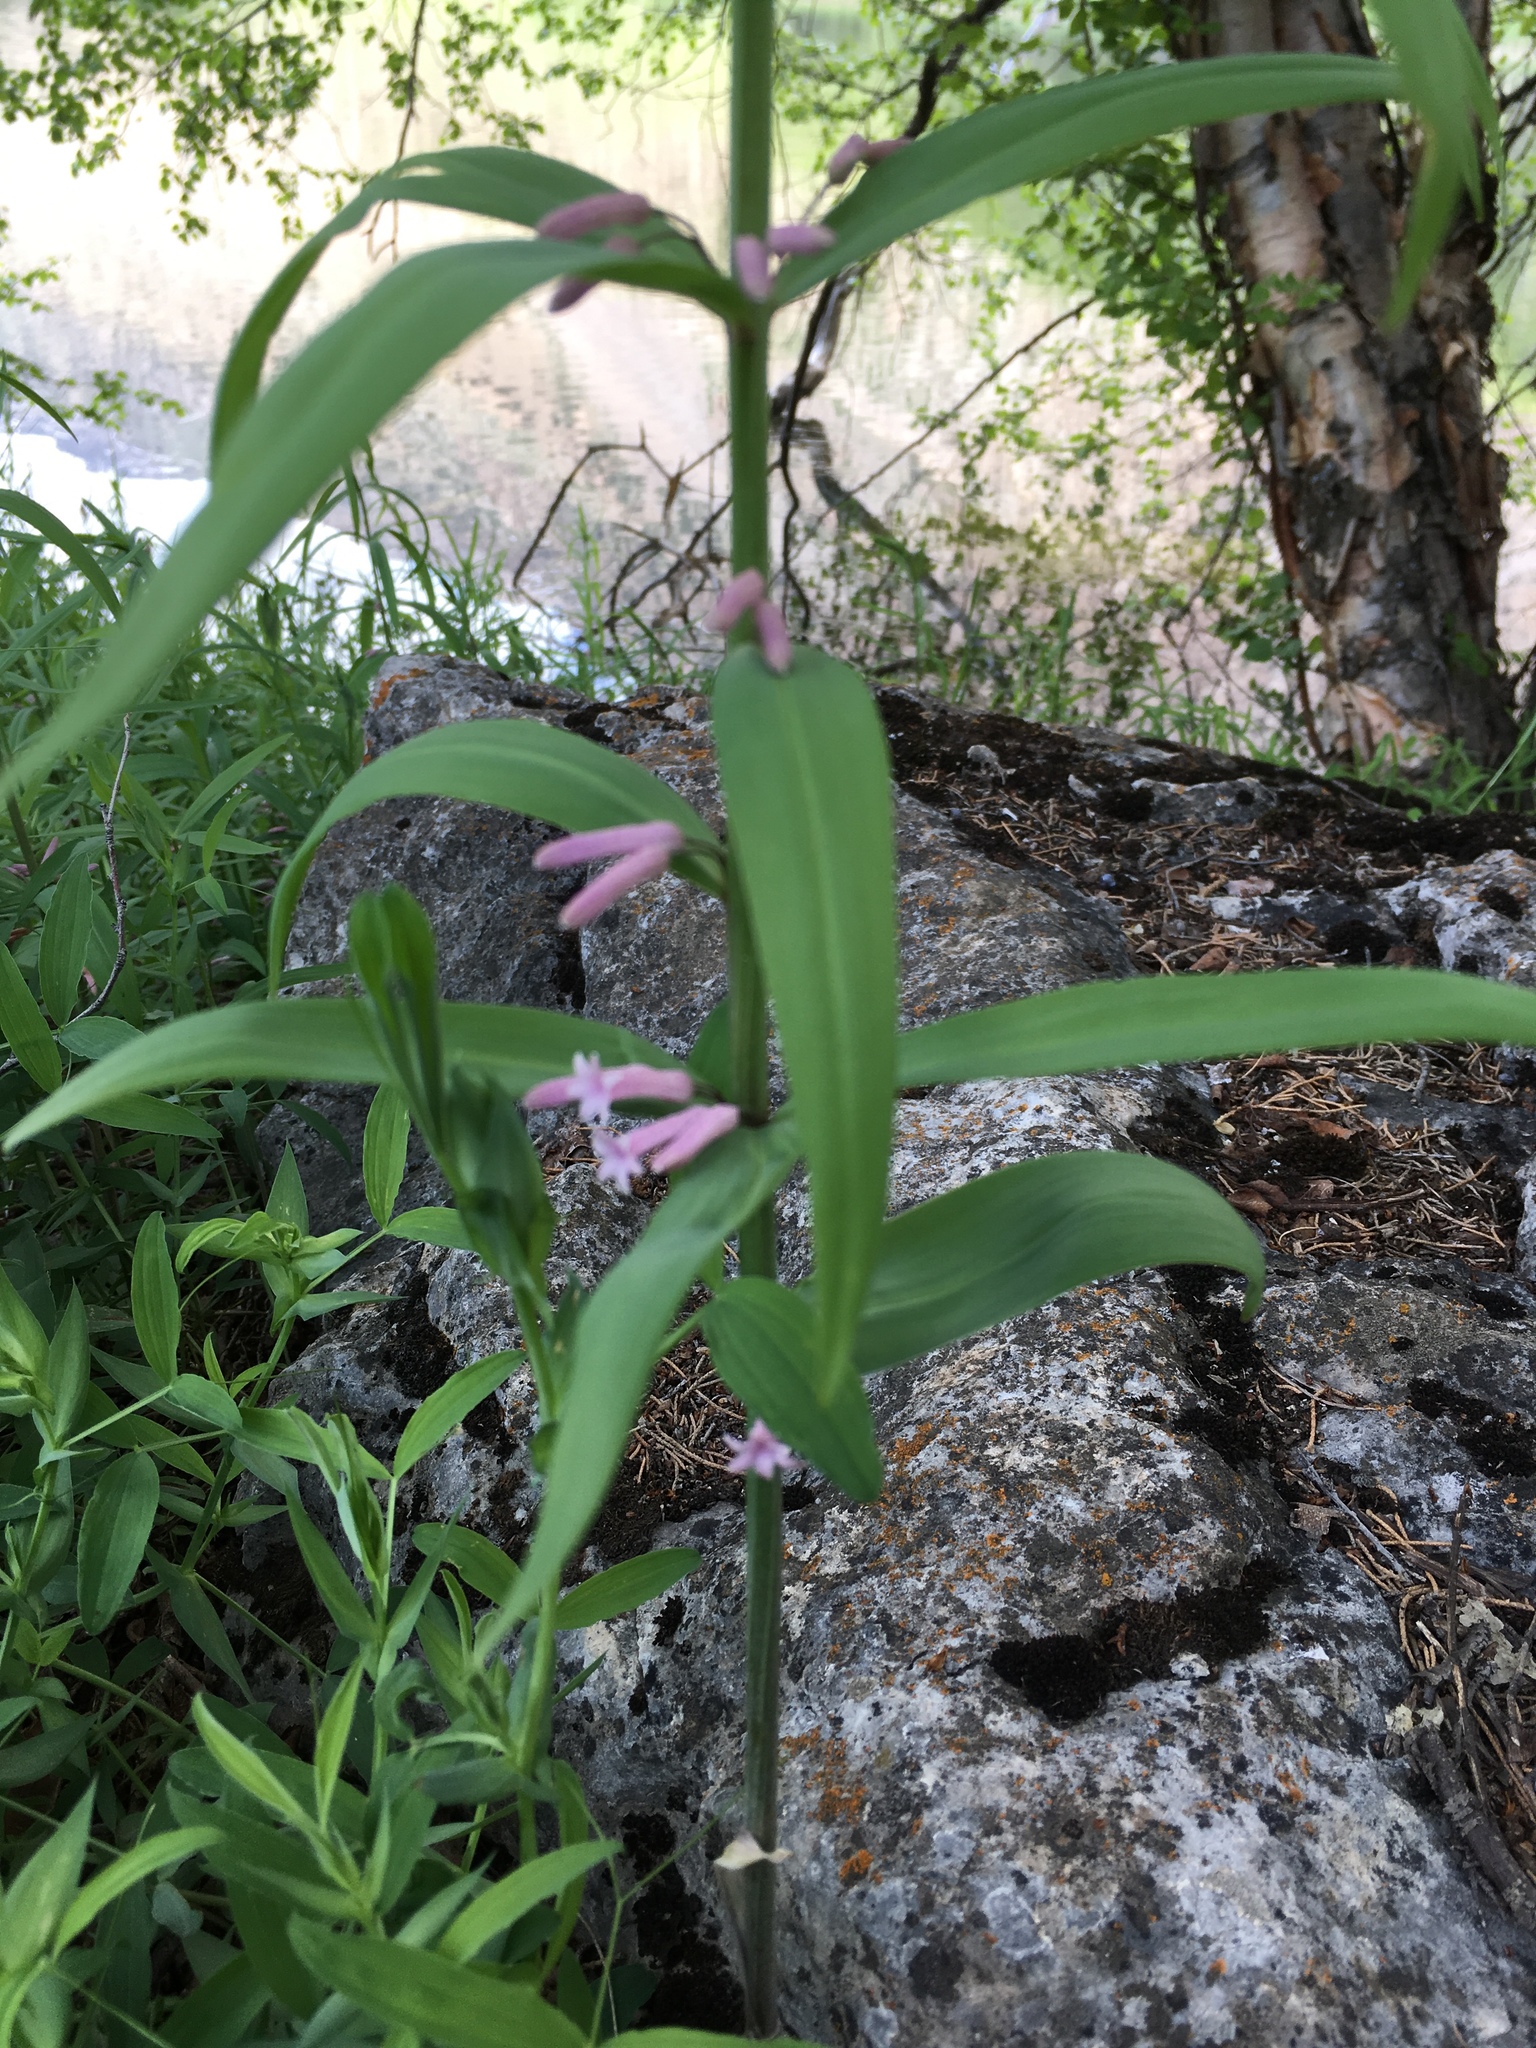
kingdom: Plantae
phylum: Tracheophyta
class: Liliopsida
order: Asparagales
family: Asparagaceae
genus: Polygonatum
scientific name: Polygonatum roseum
